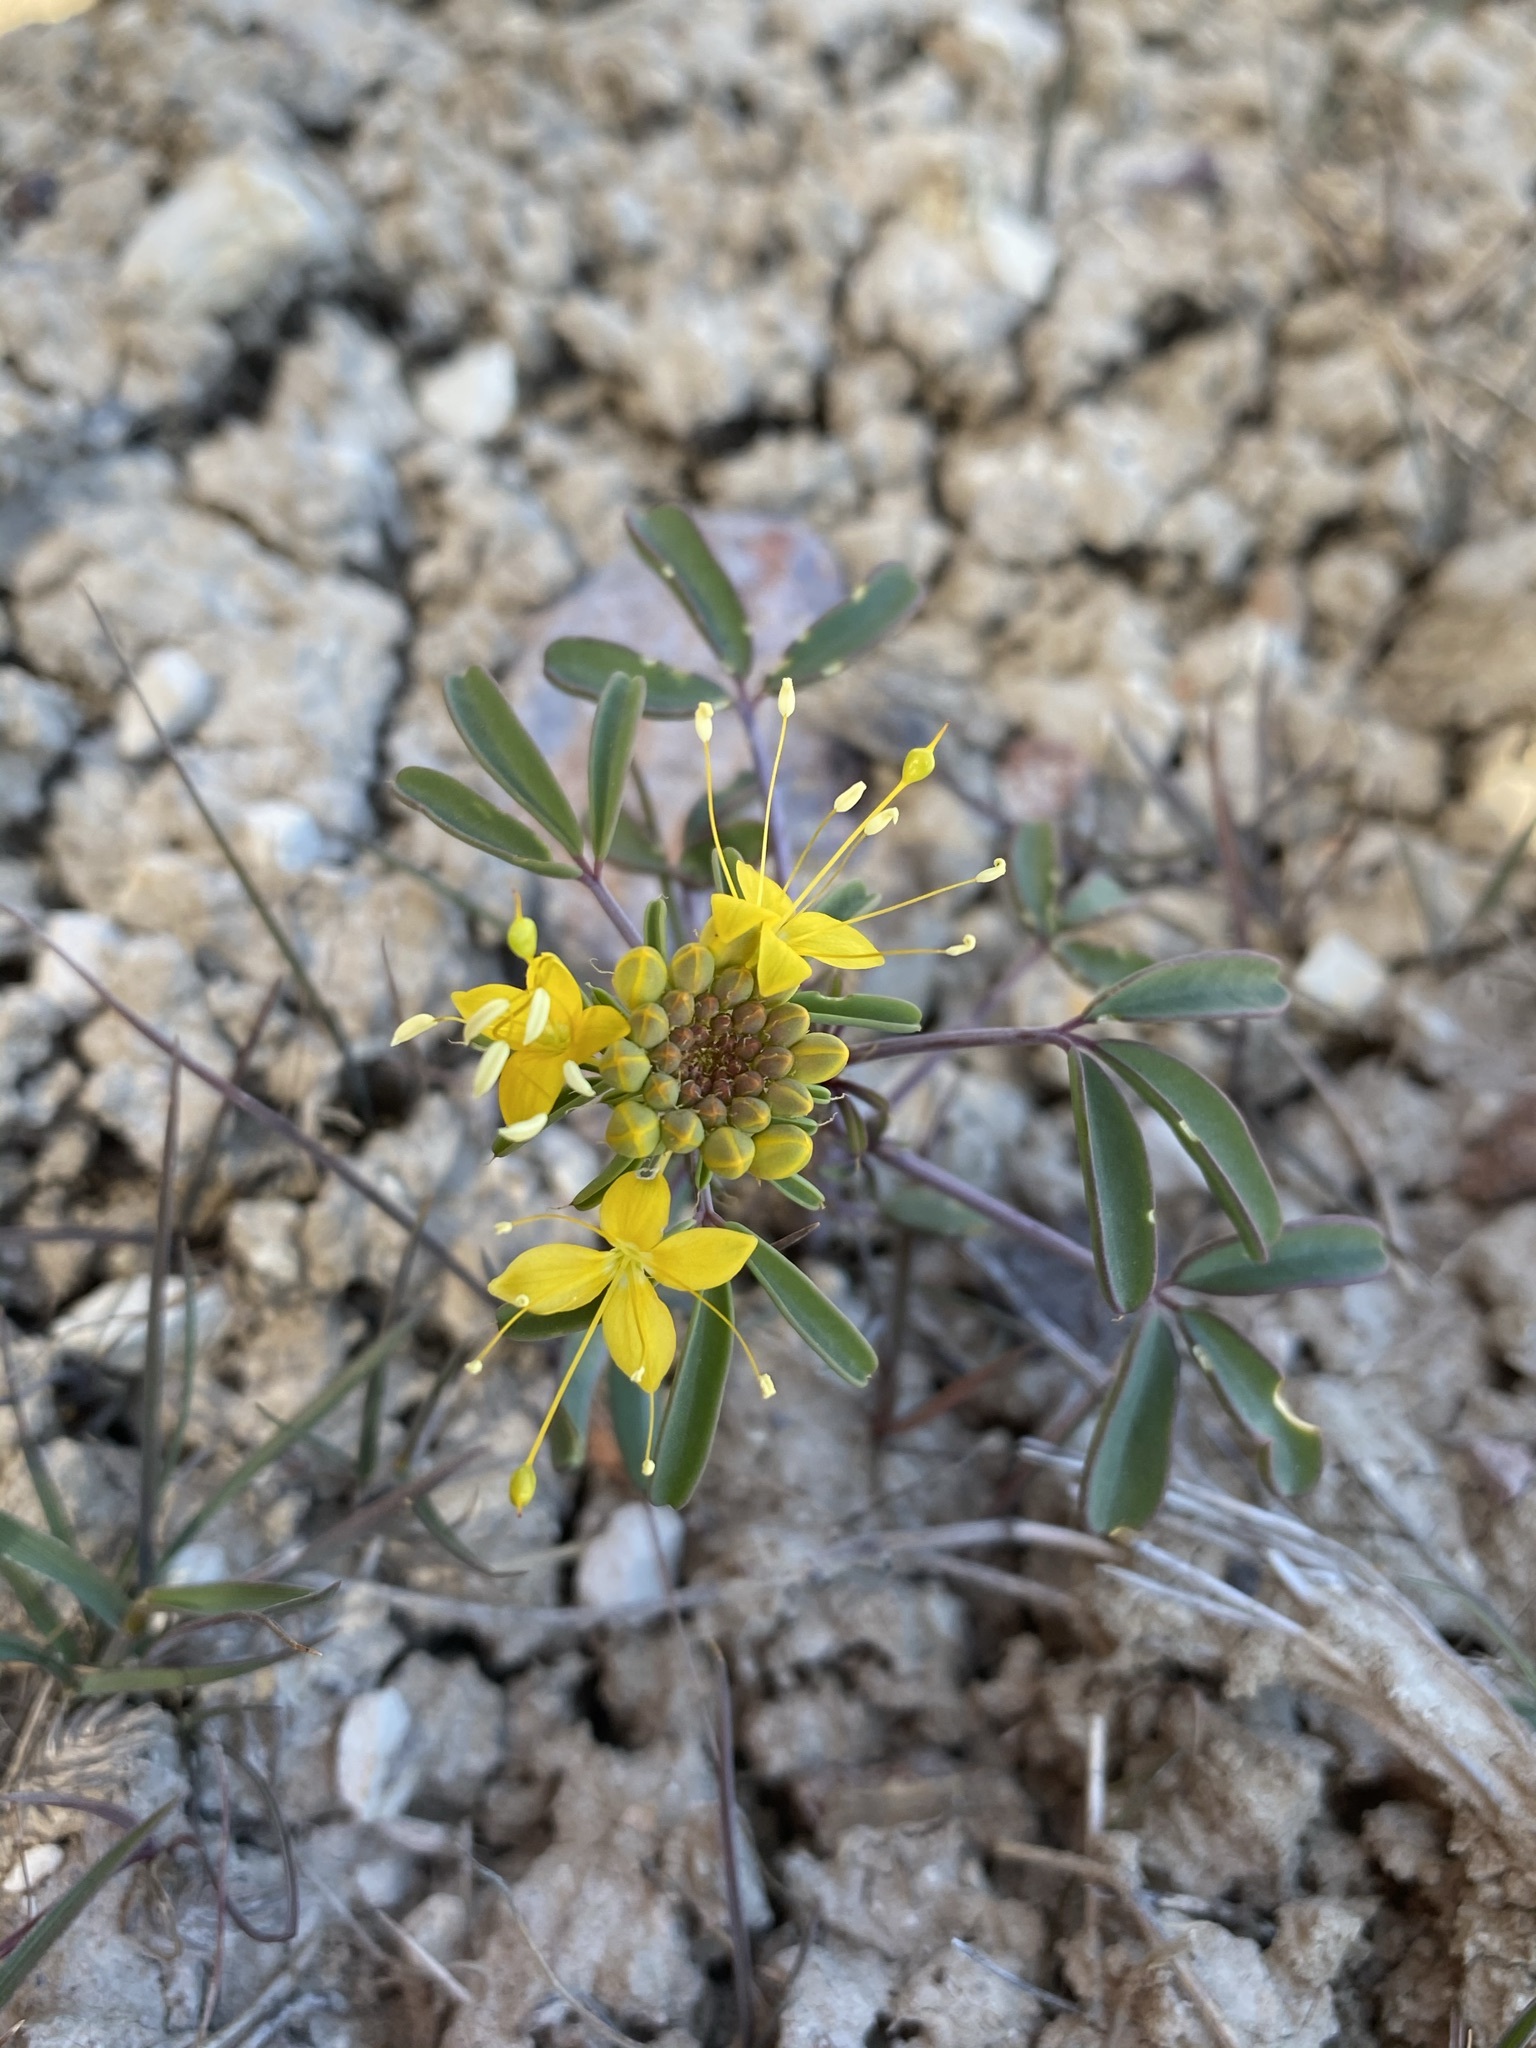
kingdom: Plantae
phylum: Tracheophyta
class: Magnoliopsida
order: Brassicales
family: Cleomaceae
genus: Cleomella
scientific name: Cleomella hillmanii
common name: Desert stinkweed
